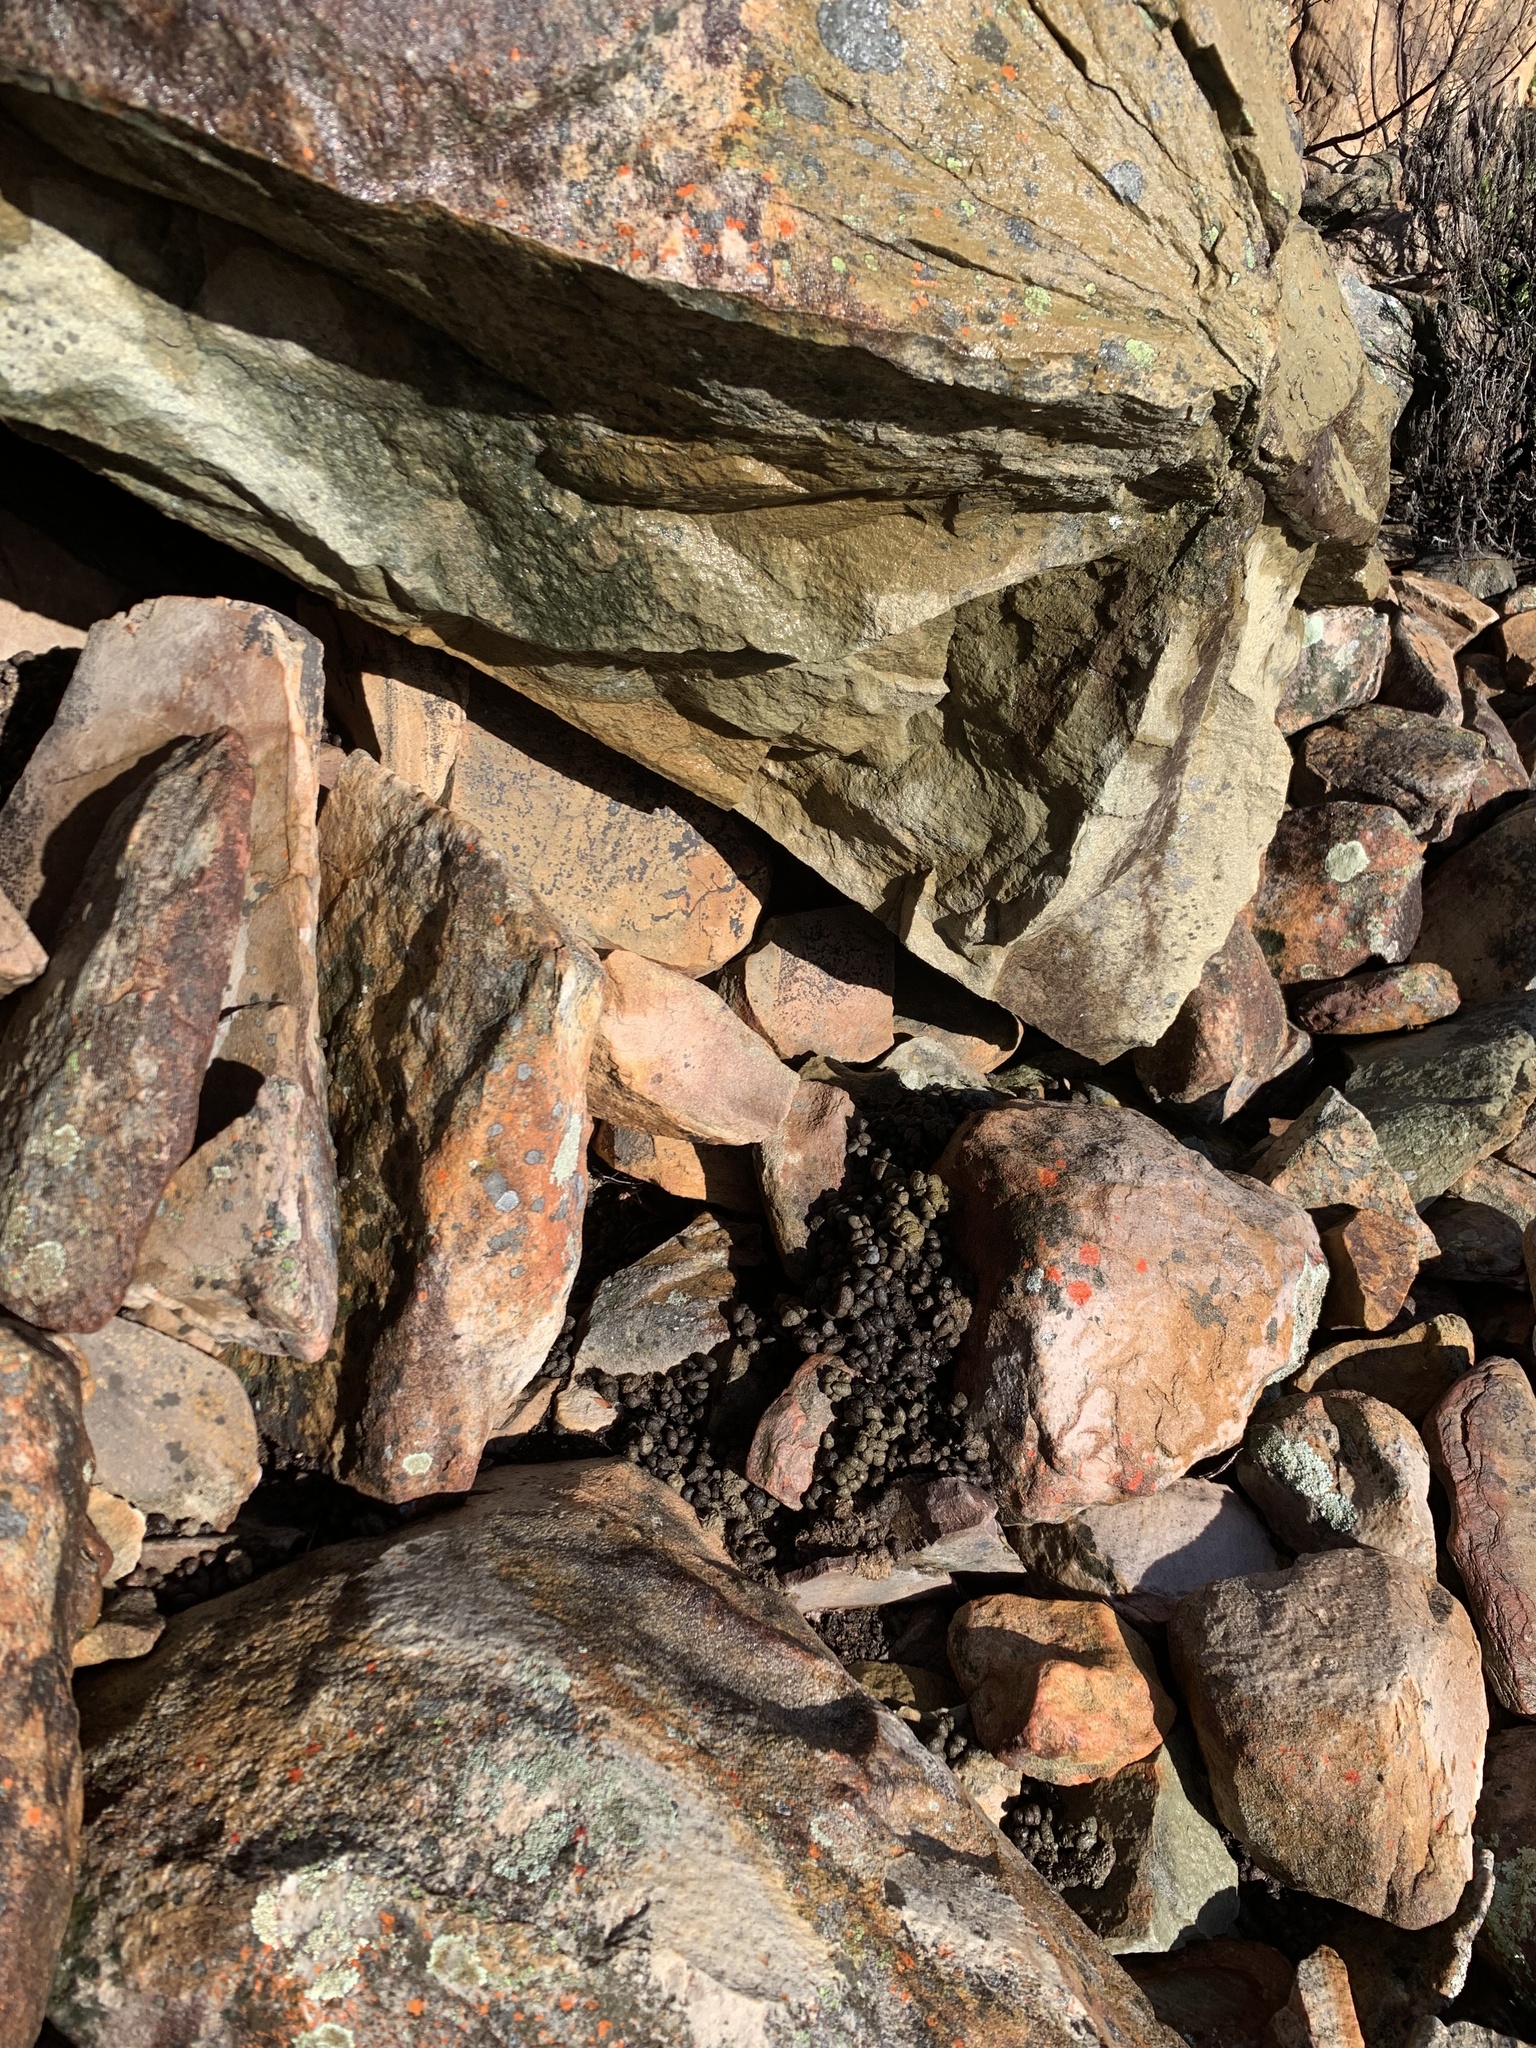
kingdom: Animalia
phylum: Chordata
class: Mammalia
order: Hyracoidea
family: Procaviidae
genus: Procavia
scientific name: Procavia capensis
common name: Rock hyrax
